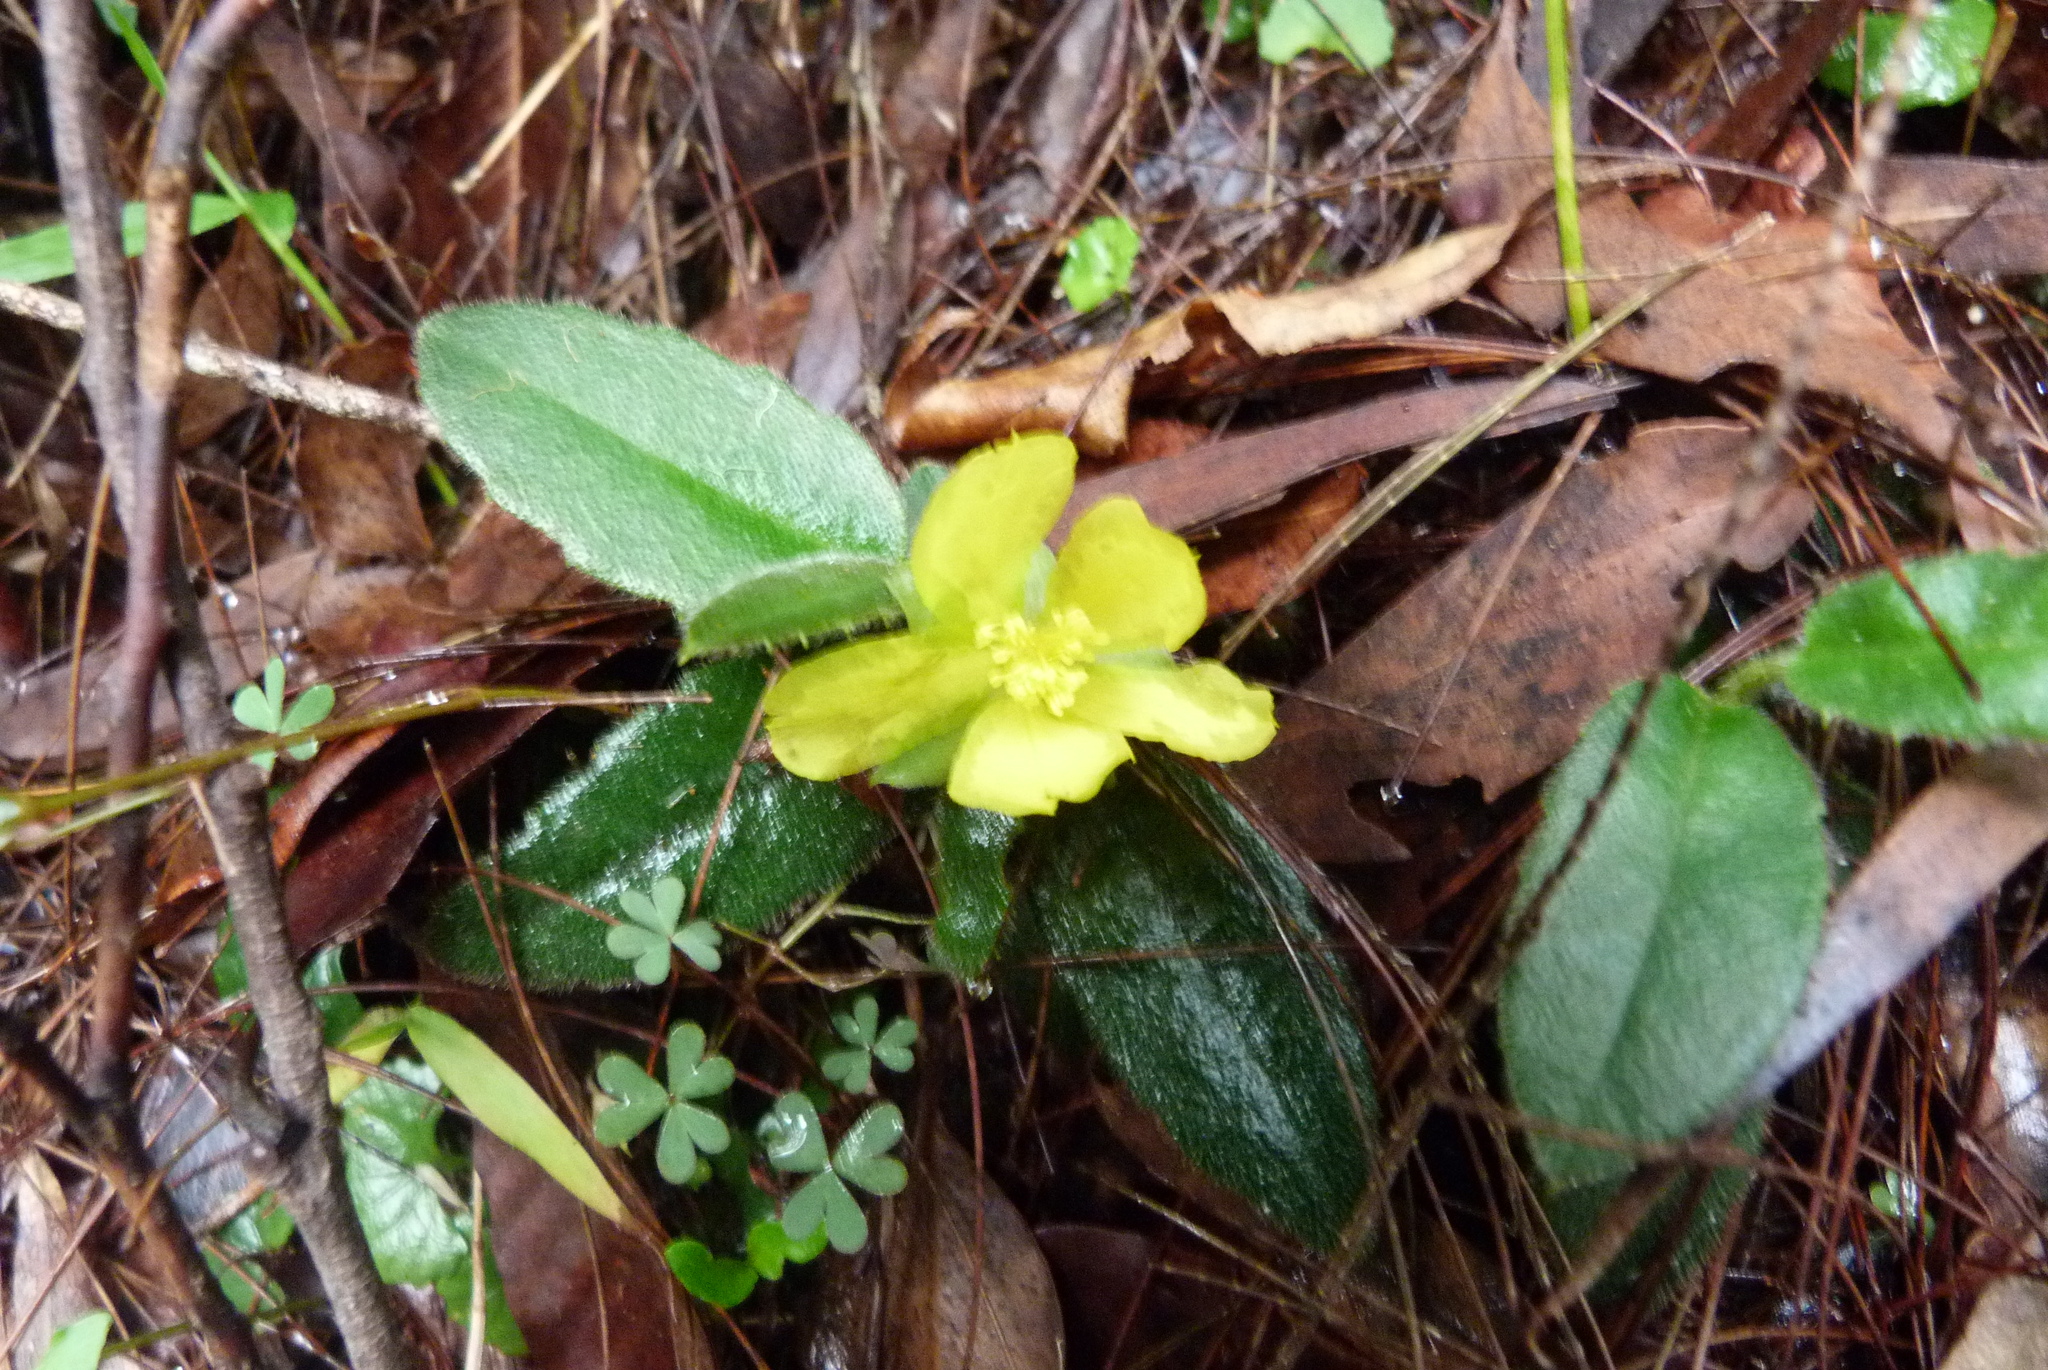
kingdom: Plantae
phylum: Tracheophyta
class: Magnoliopsida
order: Dilleniales
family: Dilleniaceae
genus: Hibbertia
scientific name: Hibbertia dentata
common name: Trailing guinea-flower
